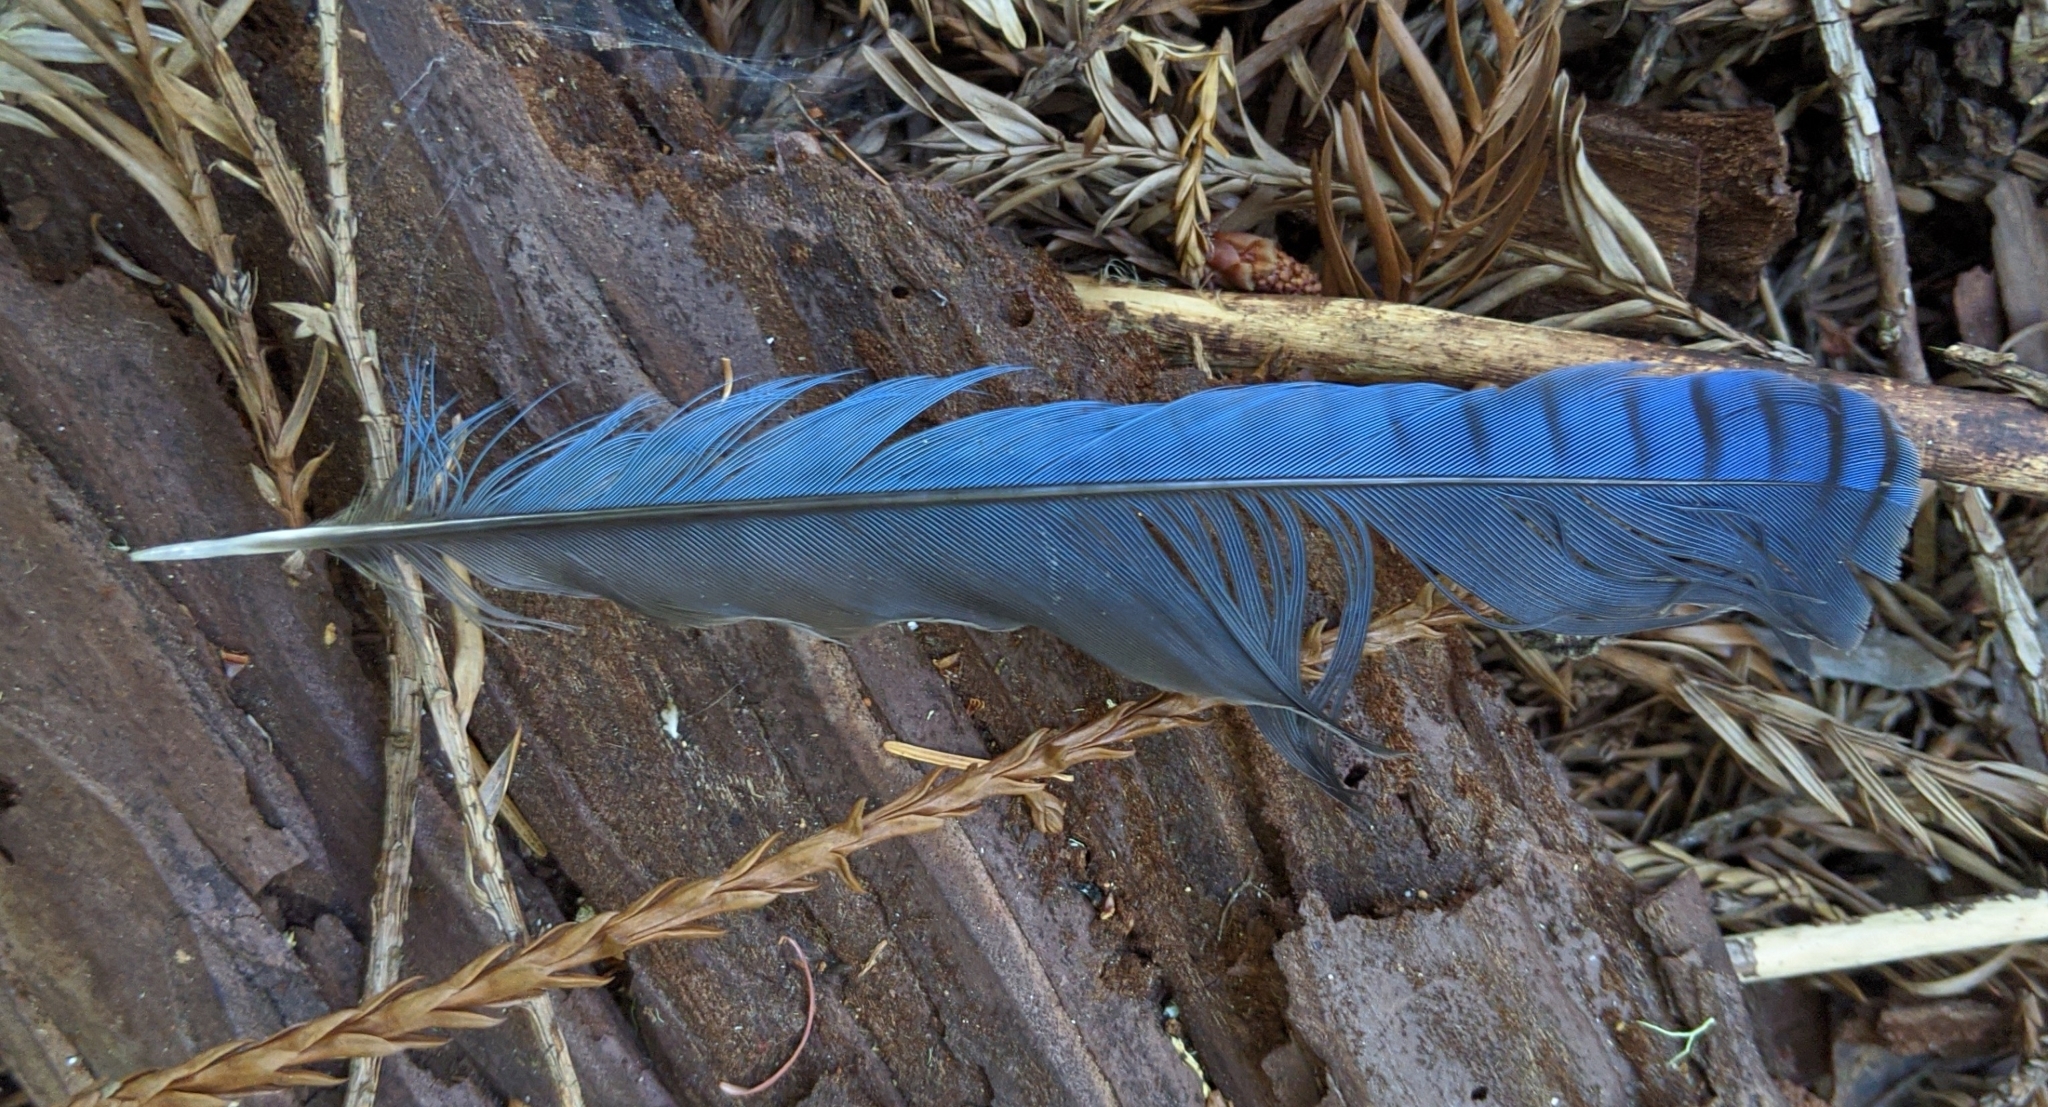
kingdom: Animalia
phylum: Chordata
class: Aves
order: Passeriformes
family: Corvidae
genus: Cyanocitta
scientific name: Cyanocitta stelleri
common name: Steller's jay
